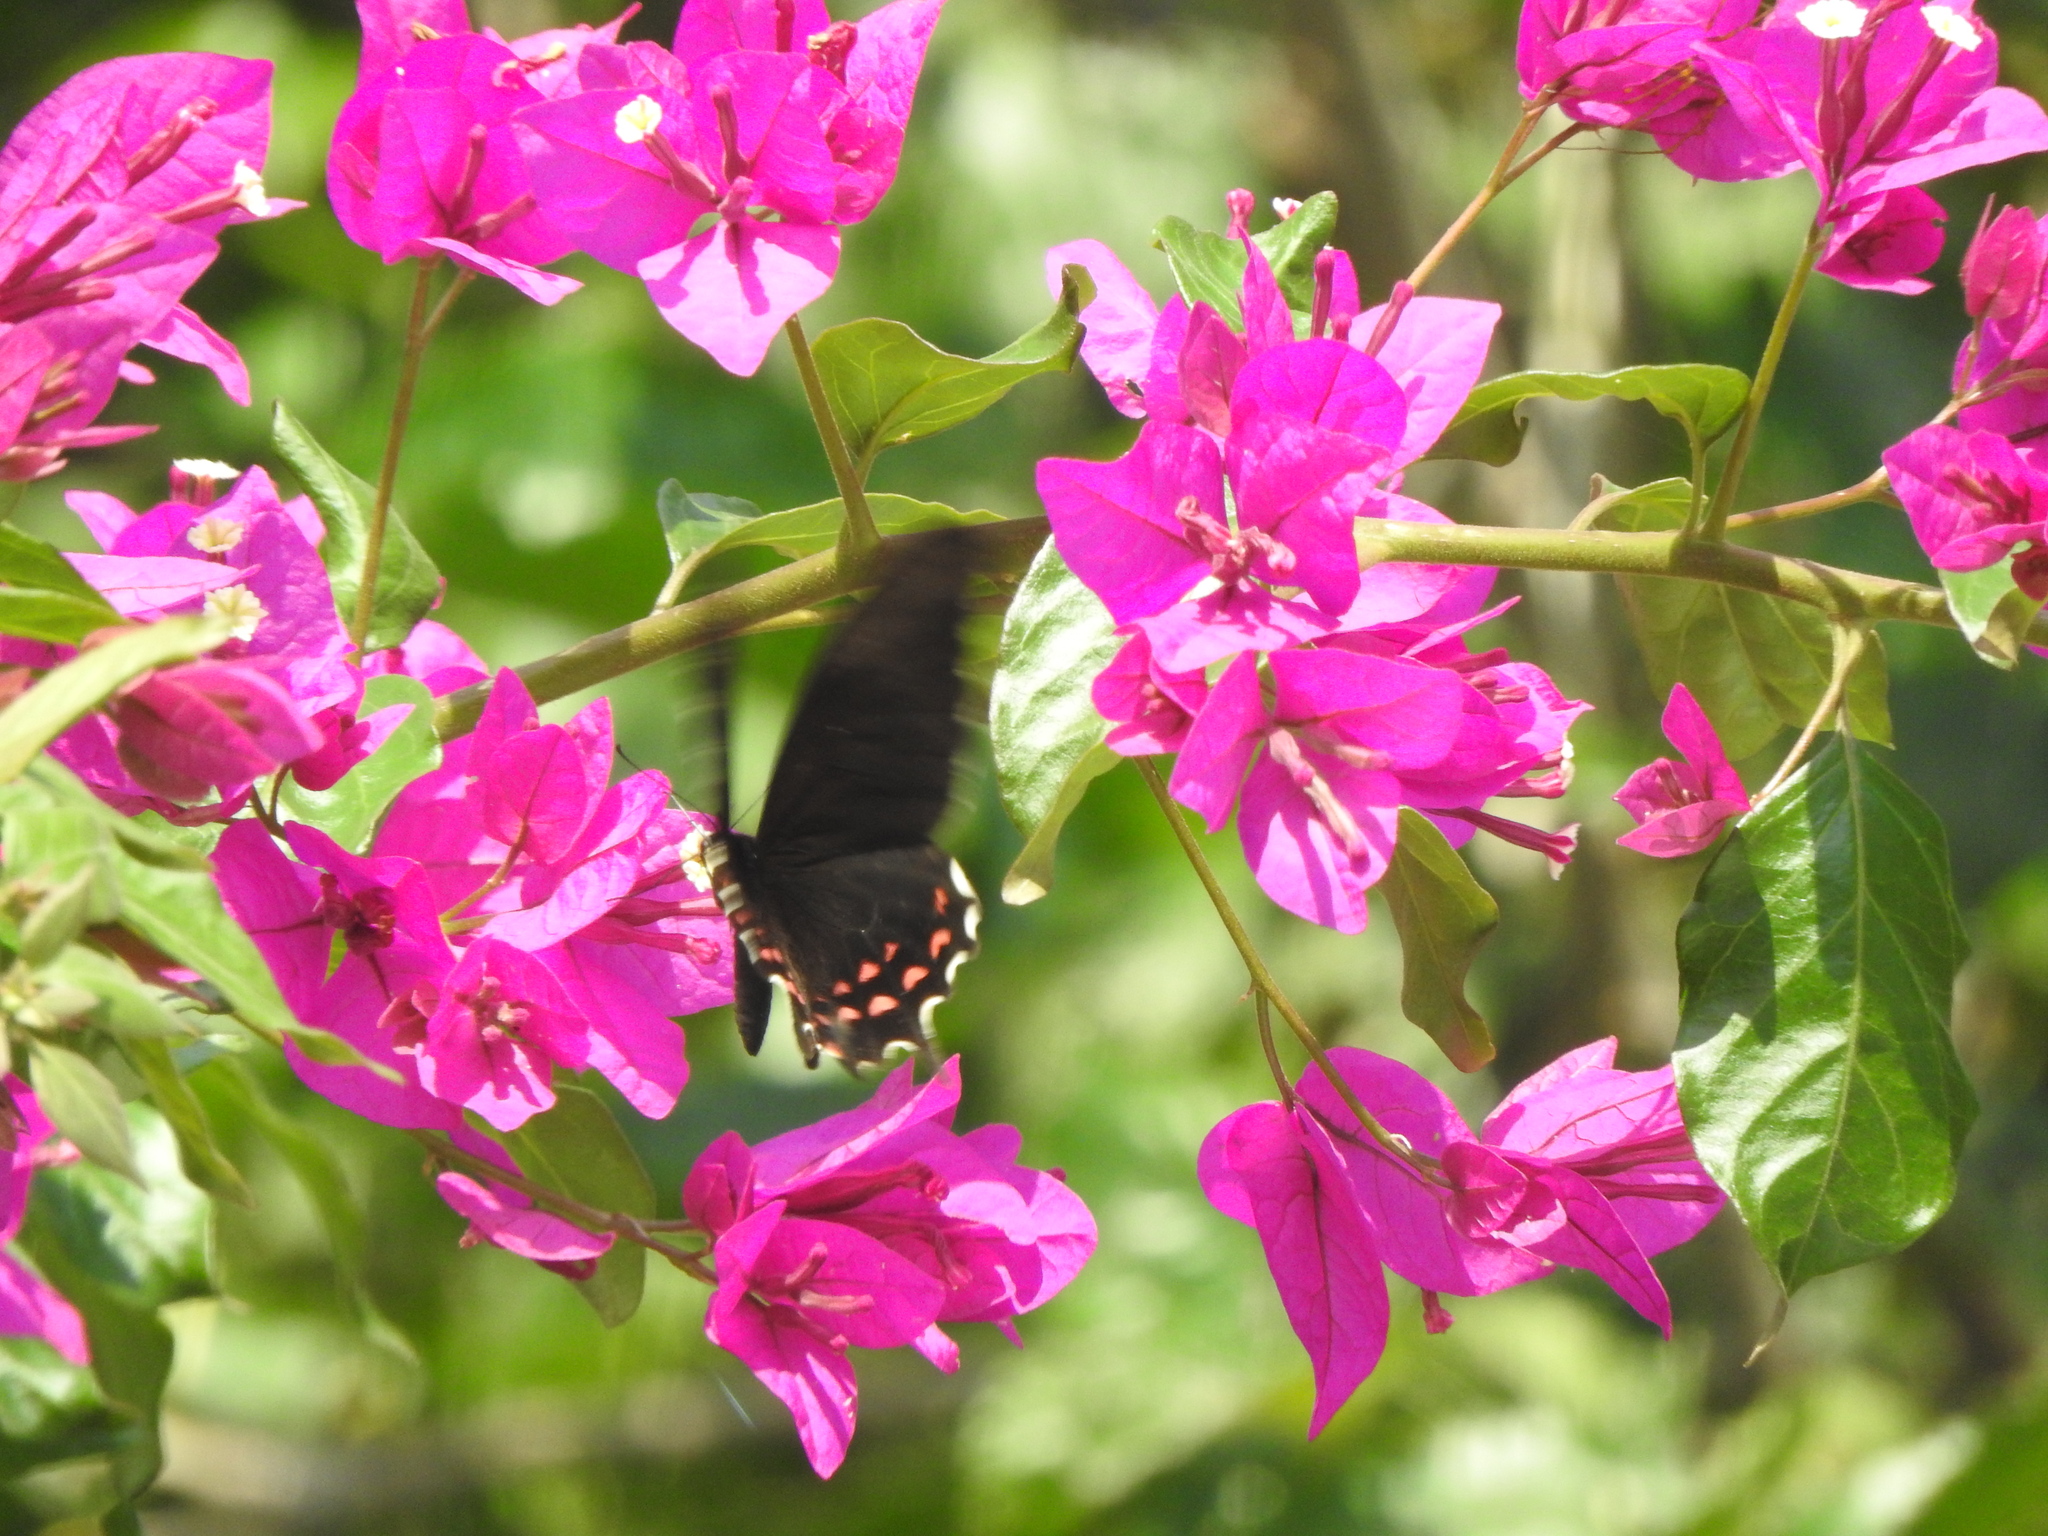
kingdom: Animalia
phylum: Arthropoda
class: Insecta
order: Lepidoptera
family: Papilionidae
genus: Heraclides
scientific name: Heraclides rogeri
